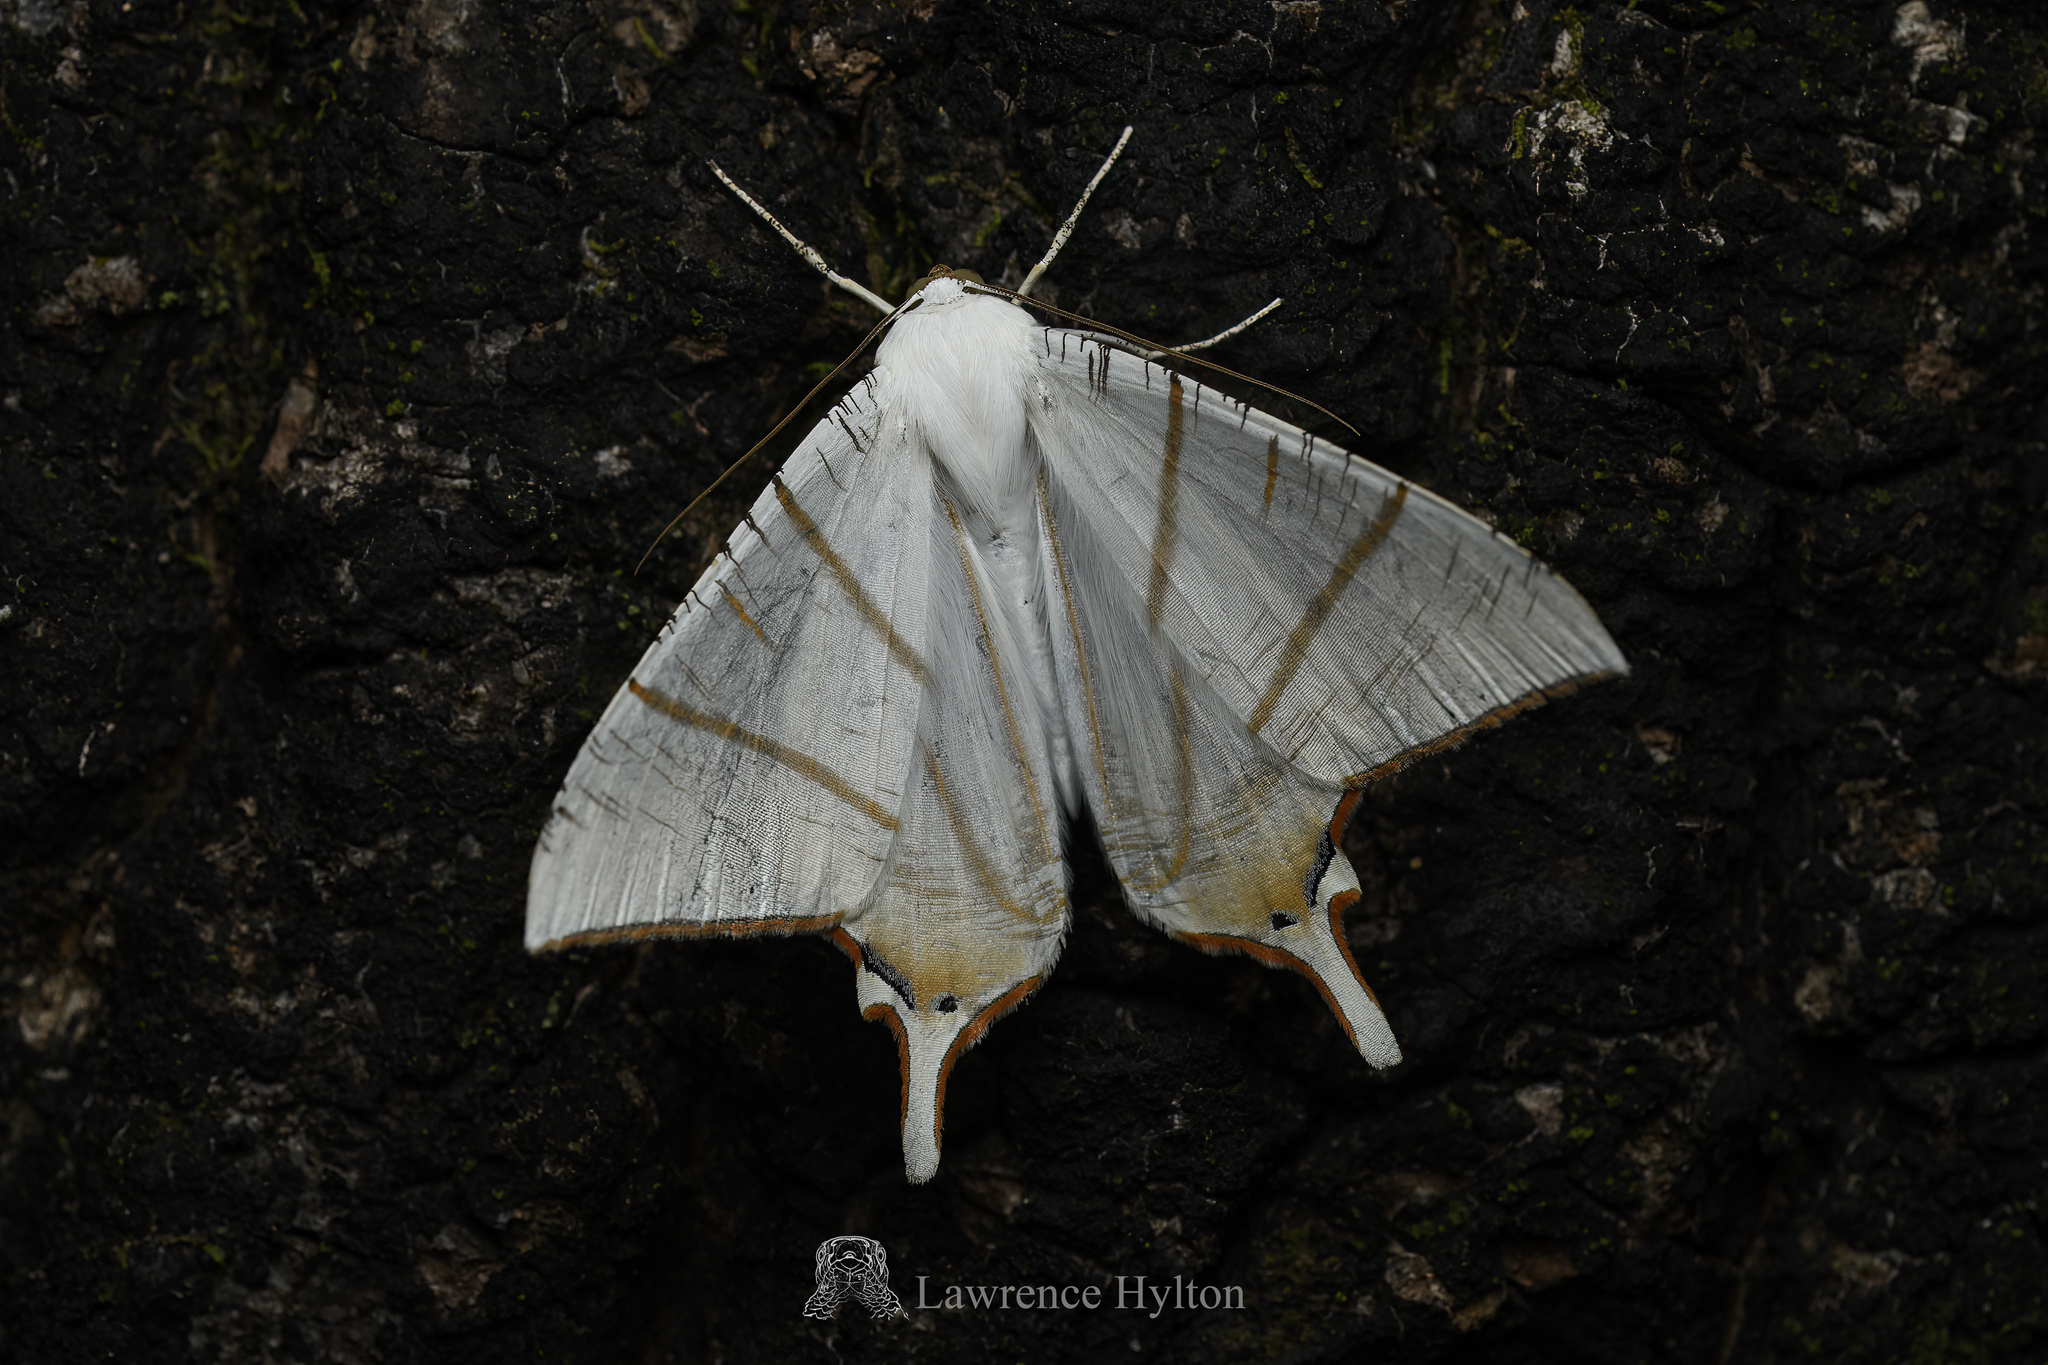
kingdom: Animalia
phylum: Arthropoda
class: Insecta
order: Lepidoptera
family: Geometridae
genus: Ourapteryx
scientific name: Ourapteryx clara
